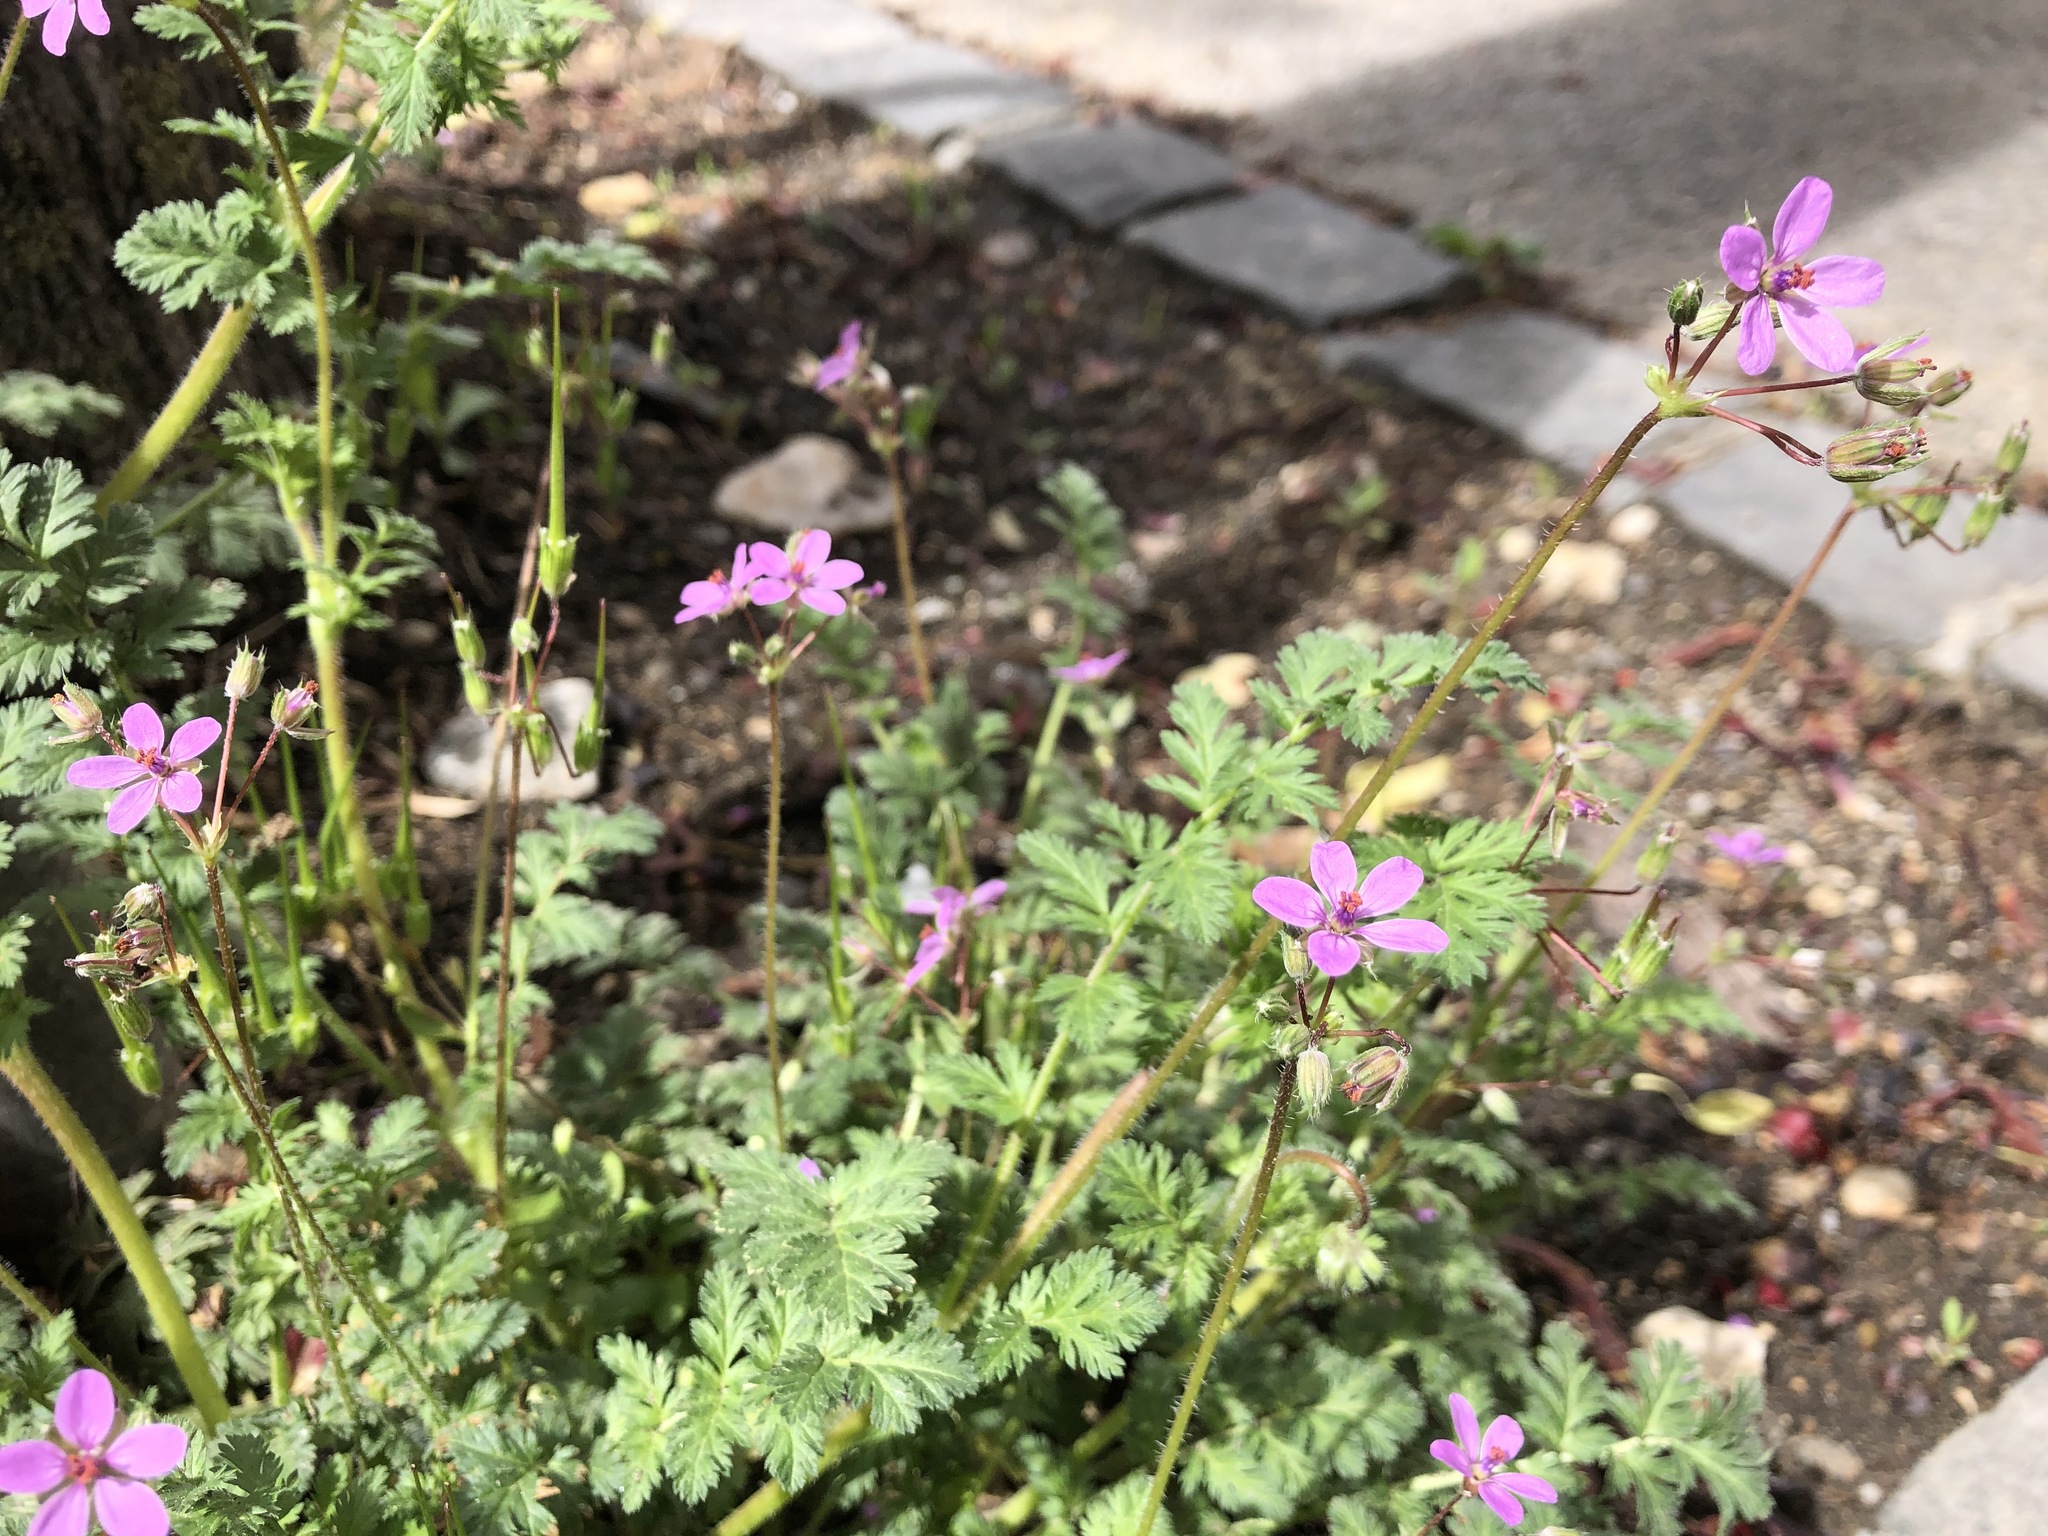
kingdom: Plantae
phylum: Tracheophyta
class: Magnoliopsida
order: Geraniales
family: Geraniaceae
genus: Erodium
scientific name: Erodium cicutarium
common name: Common stork's-bill
